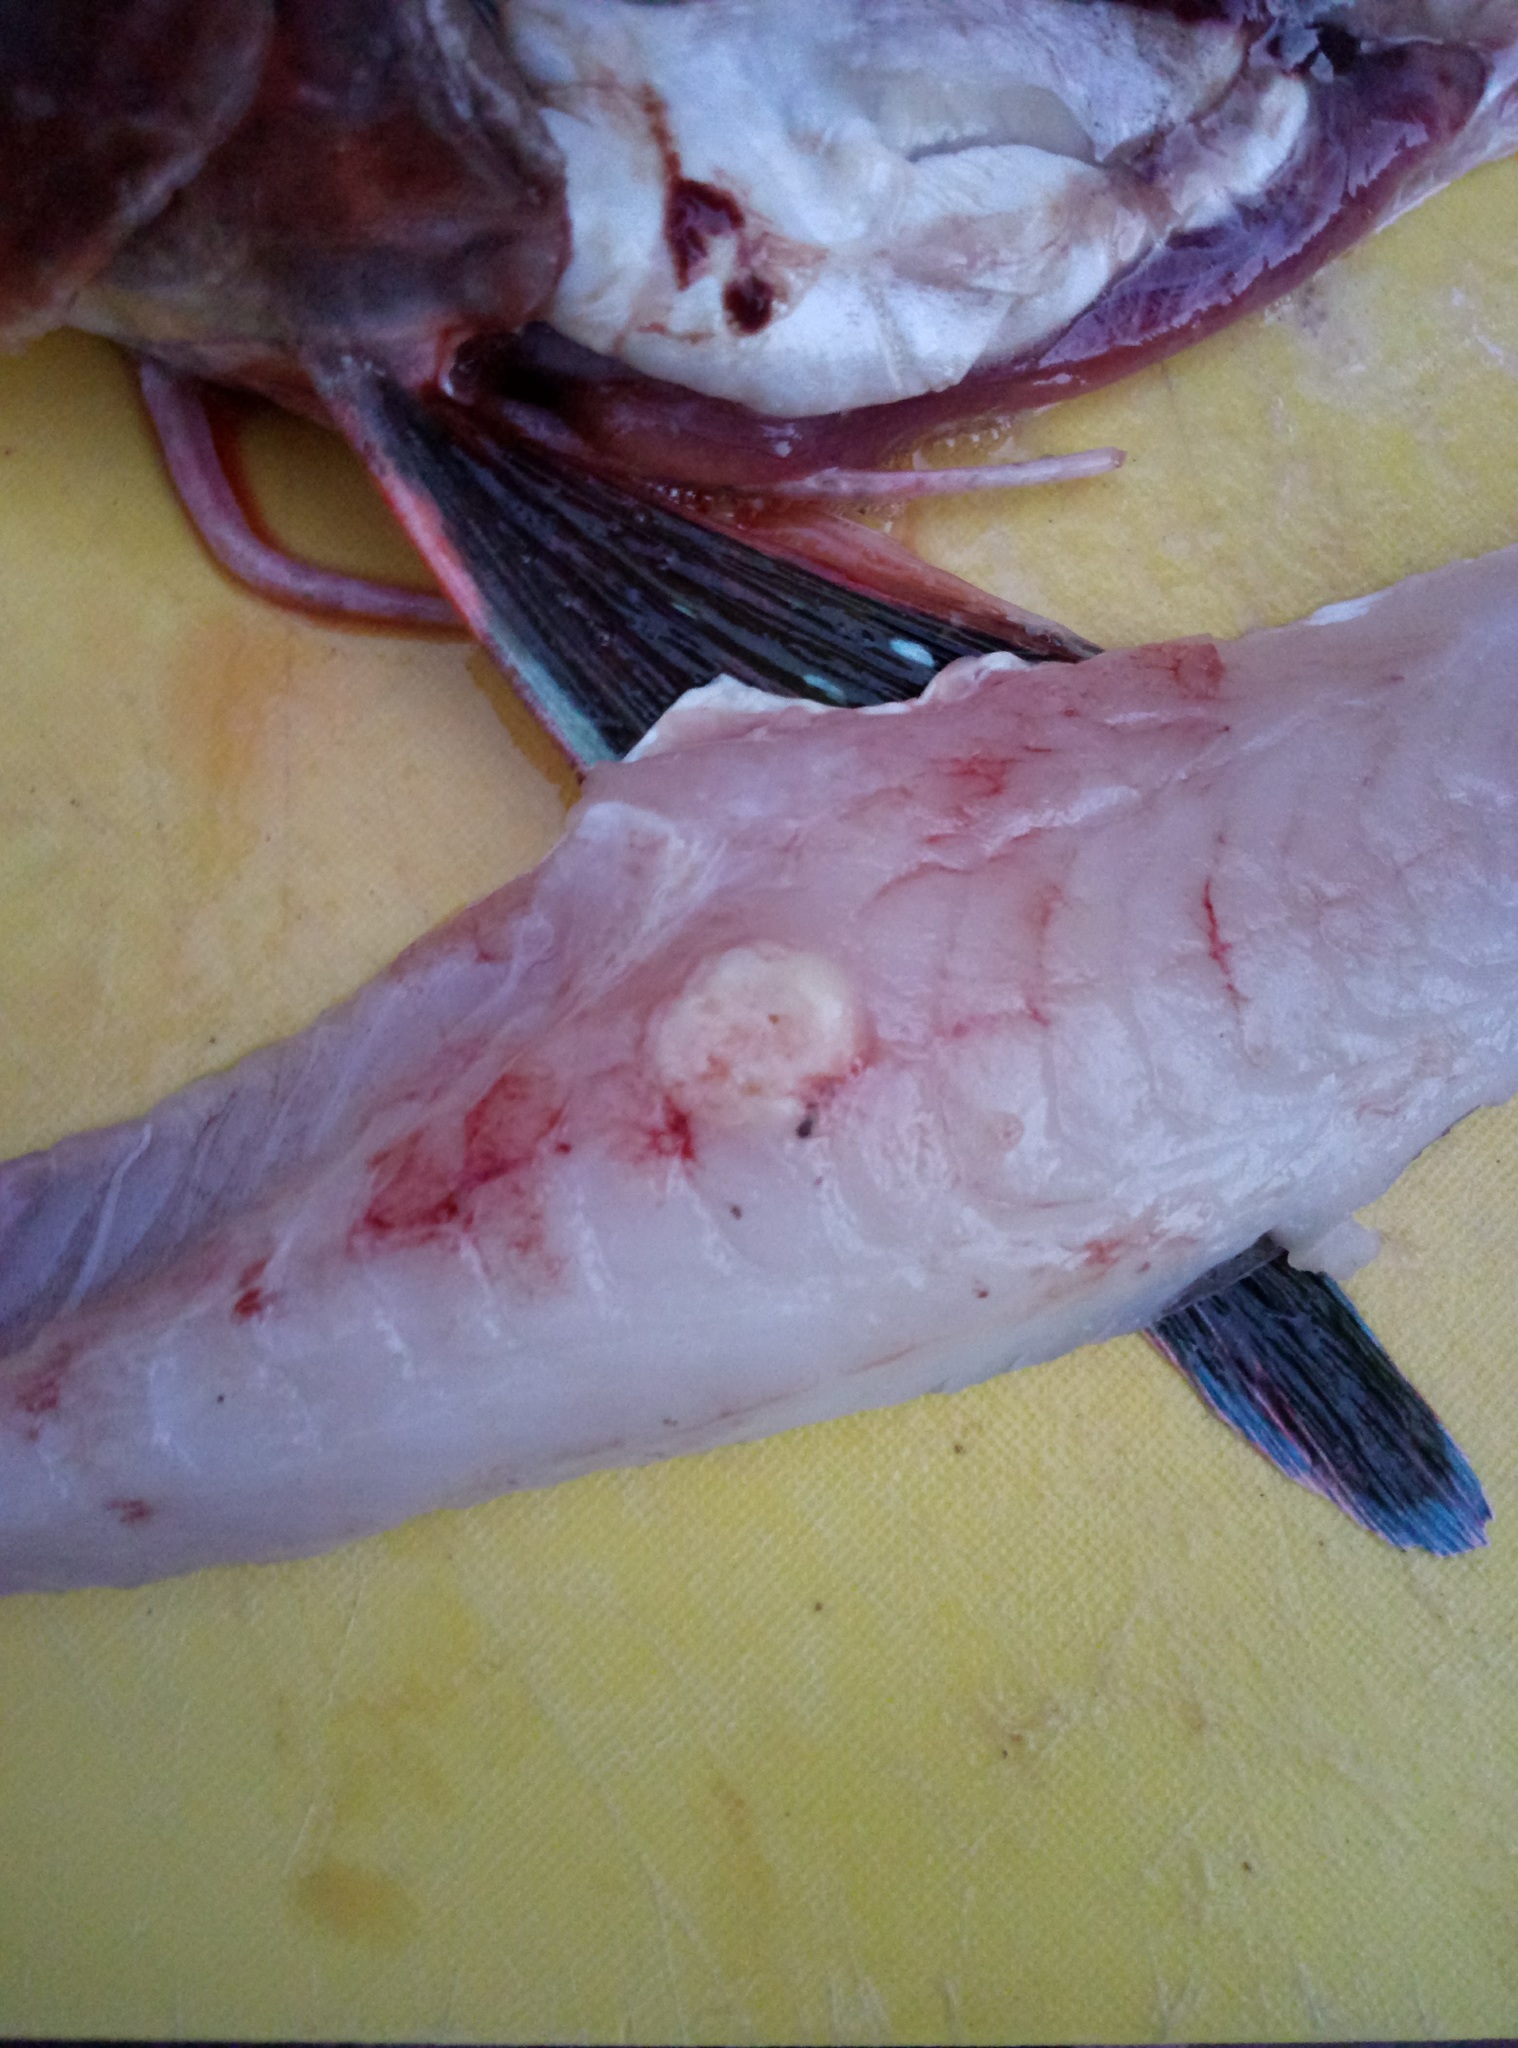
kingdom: Animalia
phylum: Chordata
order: Scorpaeniformes
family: Triglidae
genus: Chelidonichthys
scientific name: Chelidonichthys kumu
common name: Bluefin gurnard
